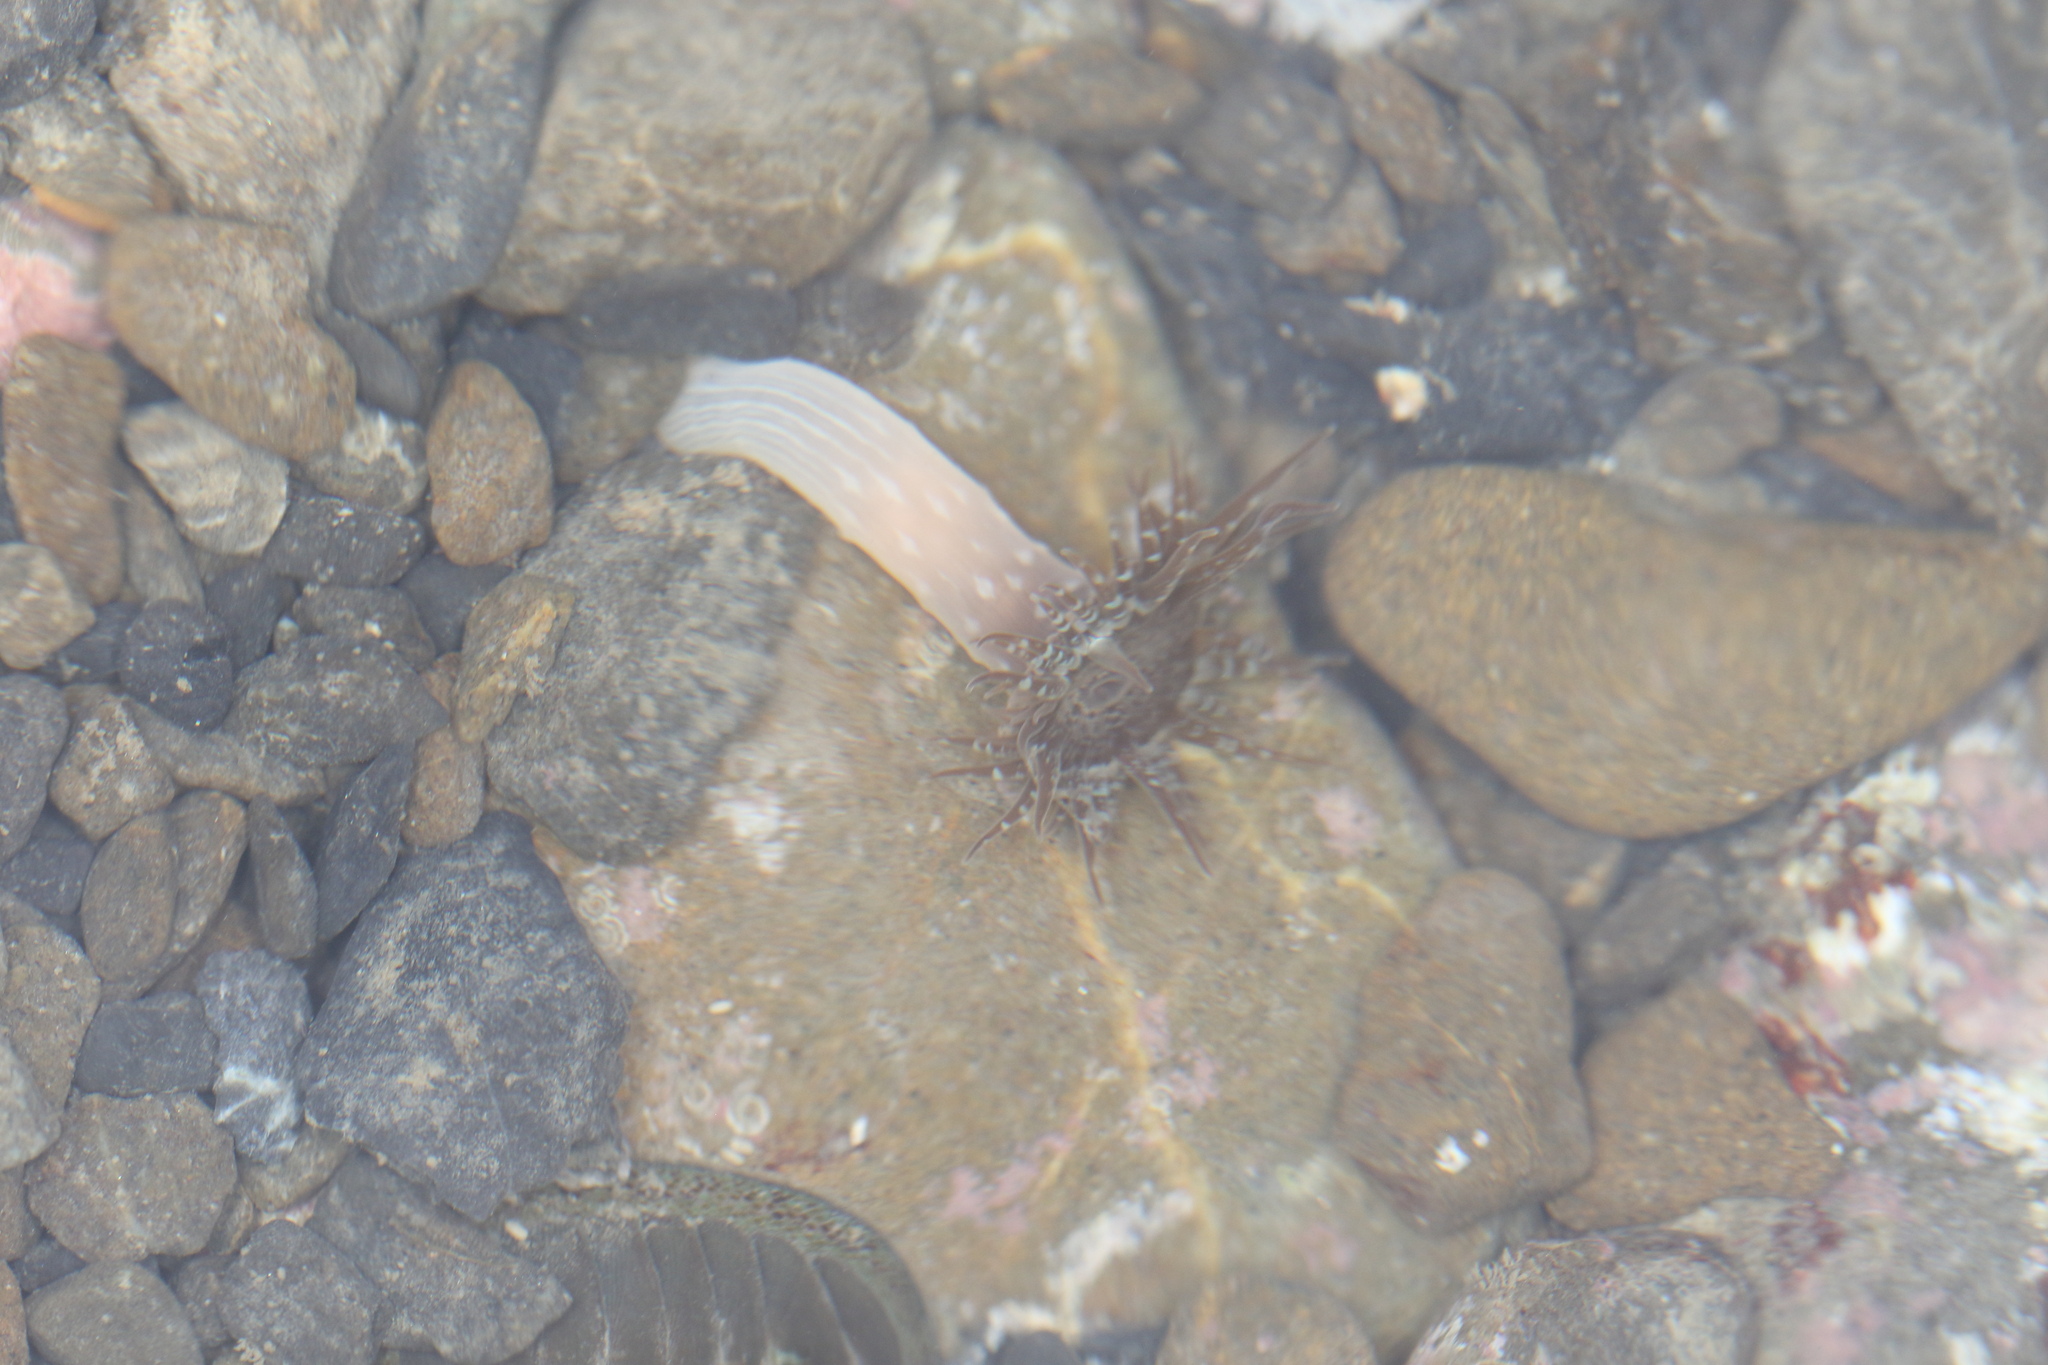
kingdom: Animalia
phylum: Cnidaria
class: Anthozoa
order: Actiniaria
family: Actiniidae
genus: Anthopleura
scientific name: Anthopleura hermaphroditica
